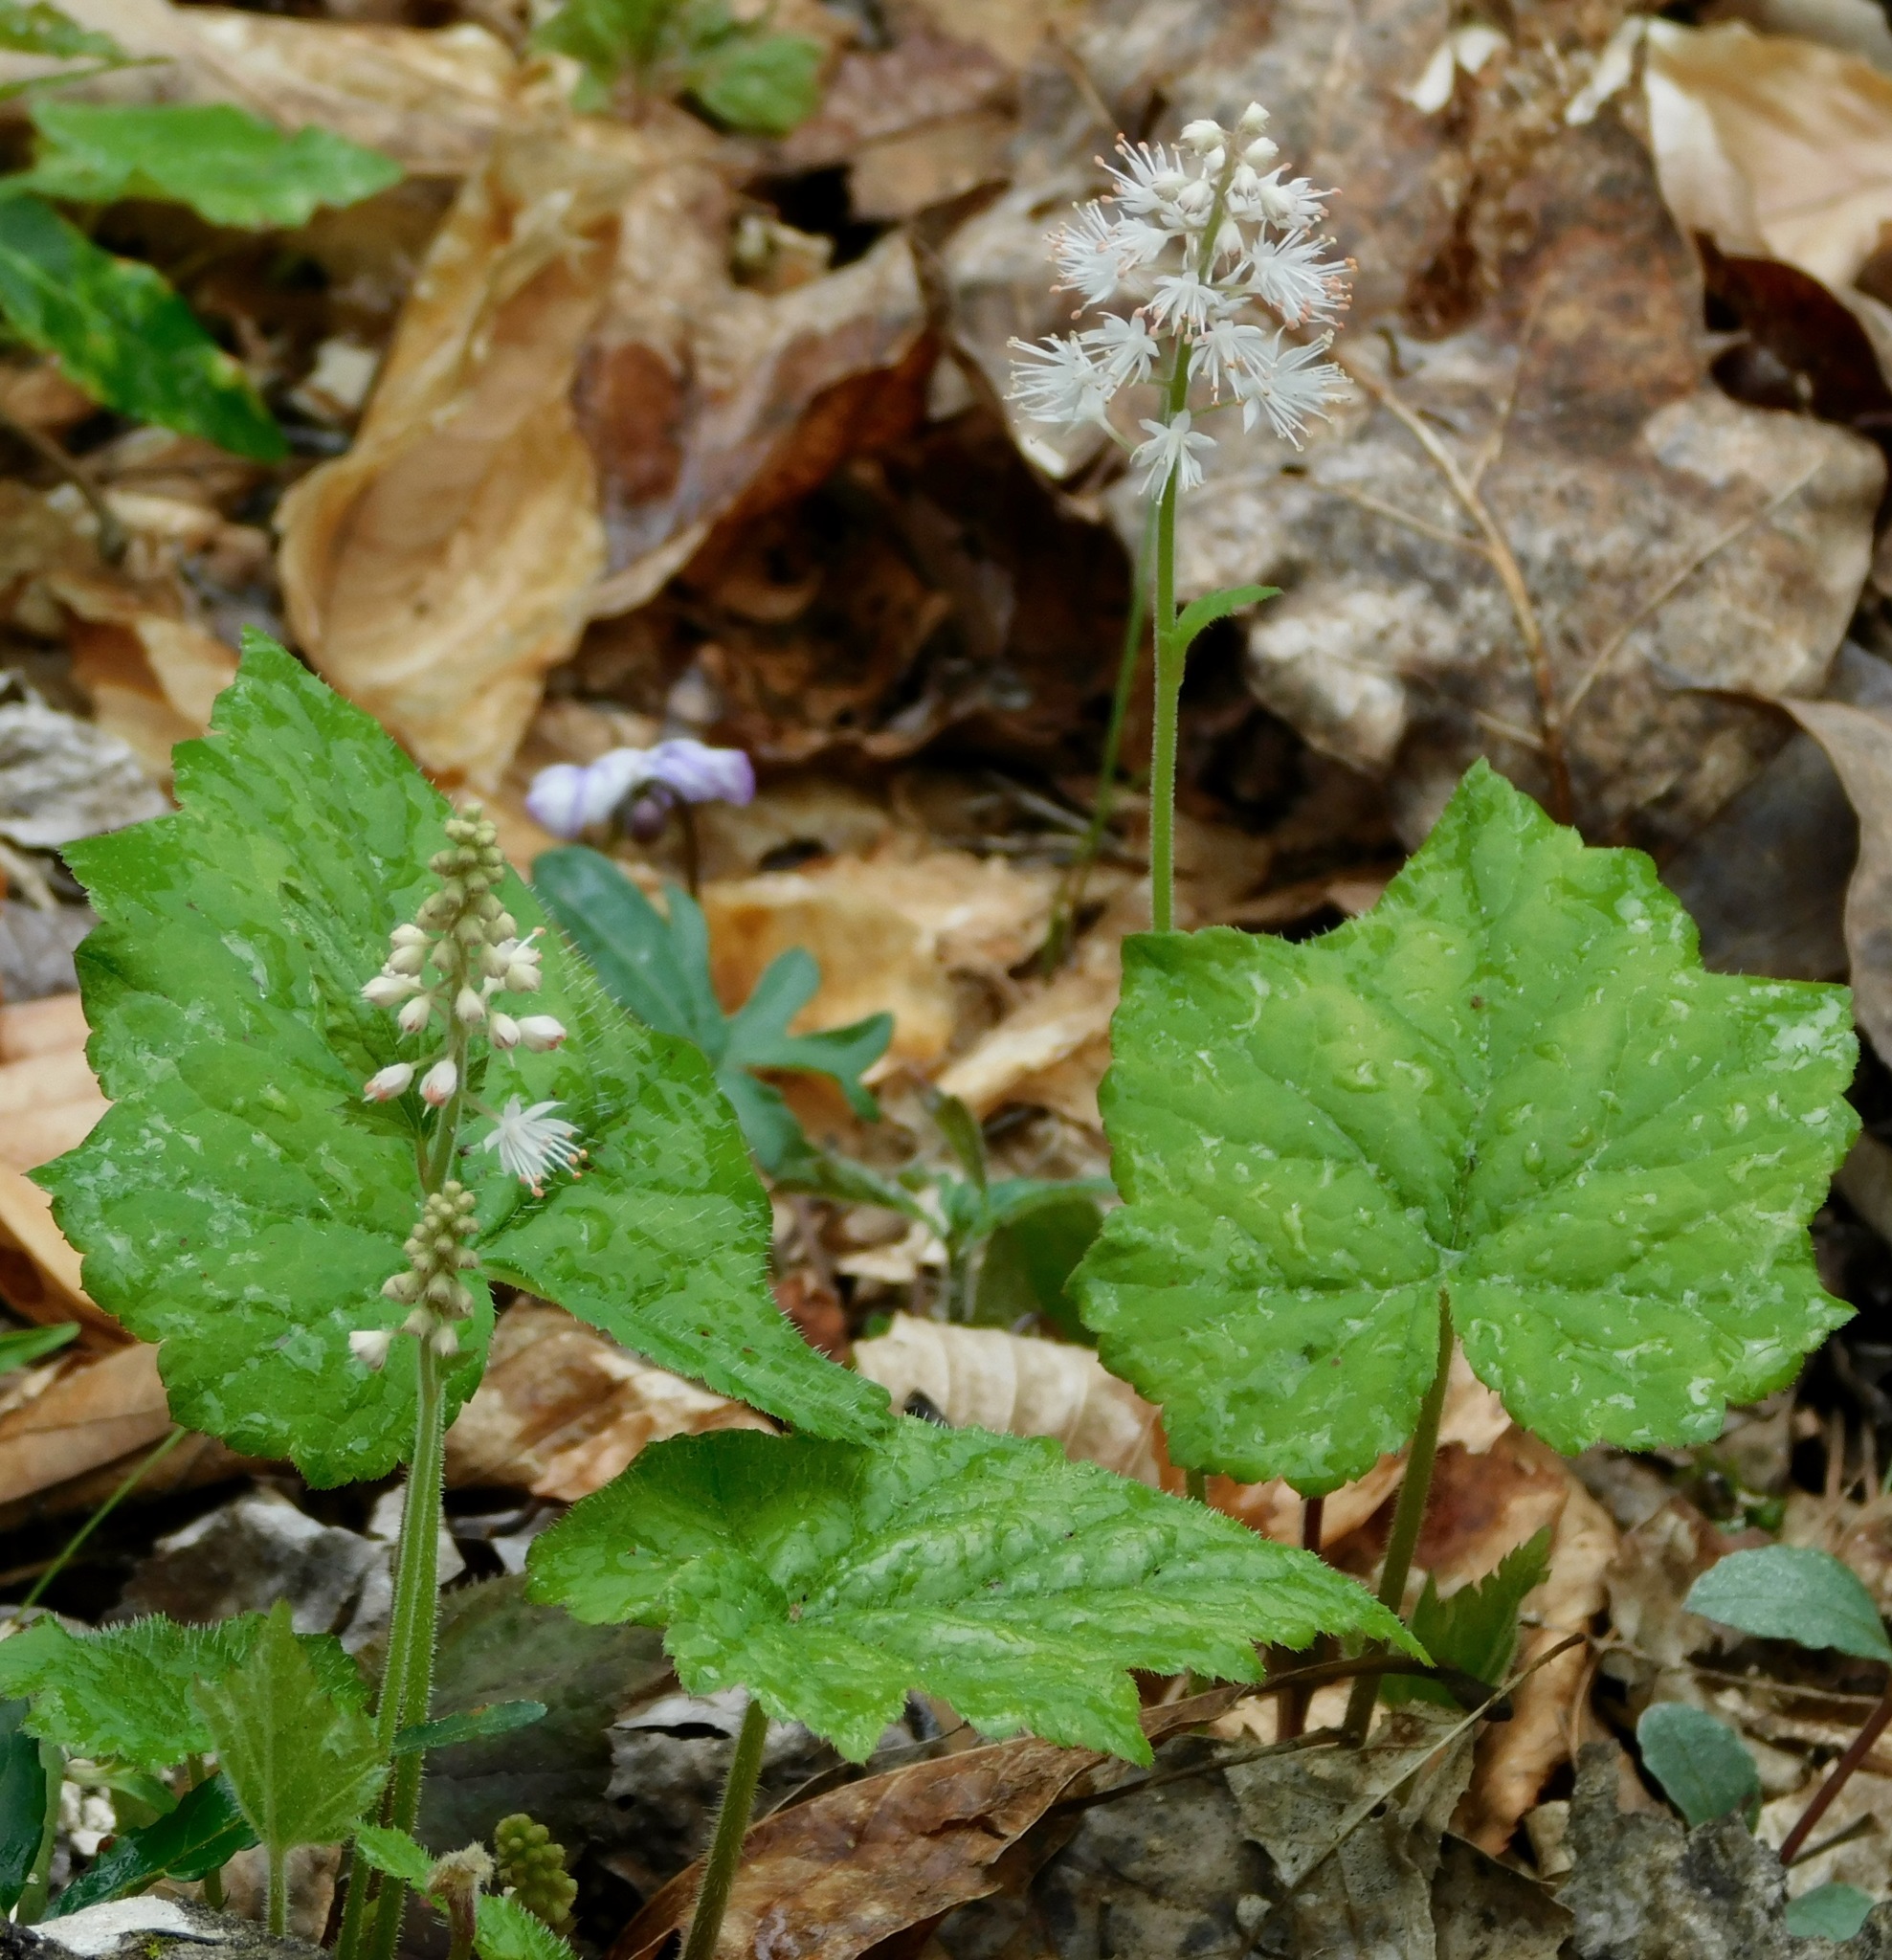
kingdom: Plantae
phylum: Tracheophyta
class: Magnoliopsida
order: Saxifragales
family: Saxifragaceae
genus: Tiarella
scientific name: Tiarella austrina
